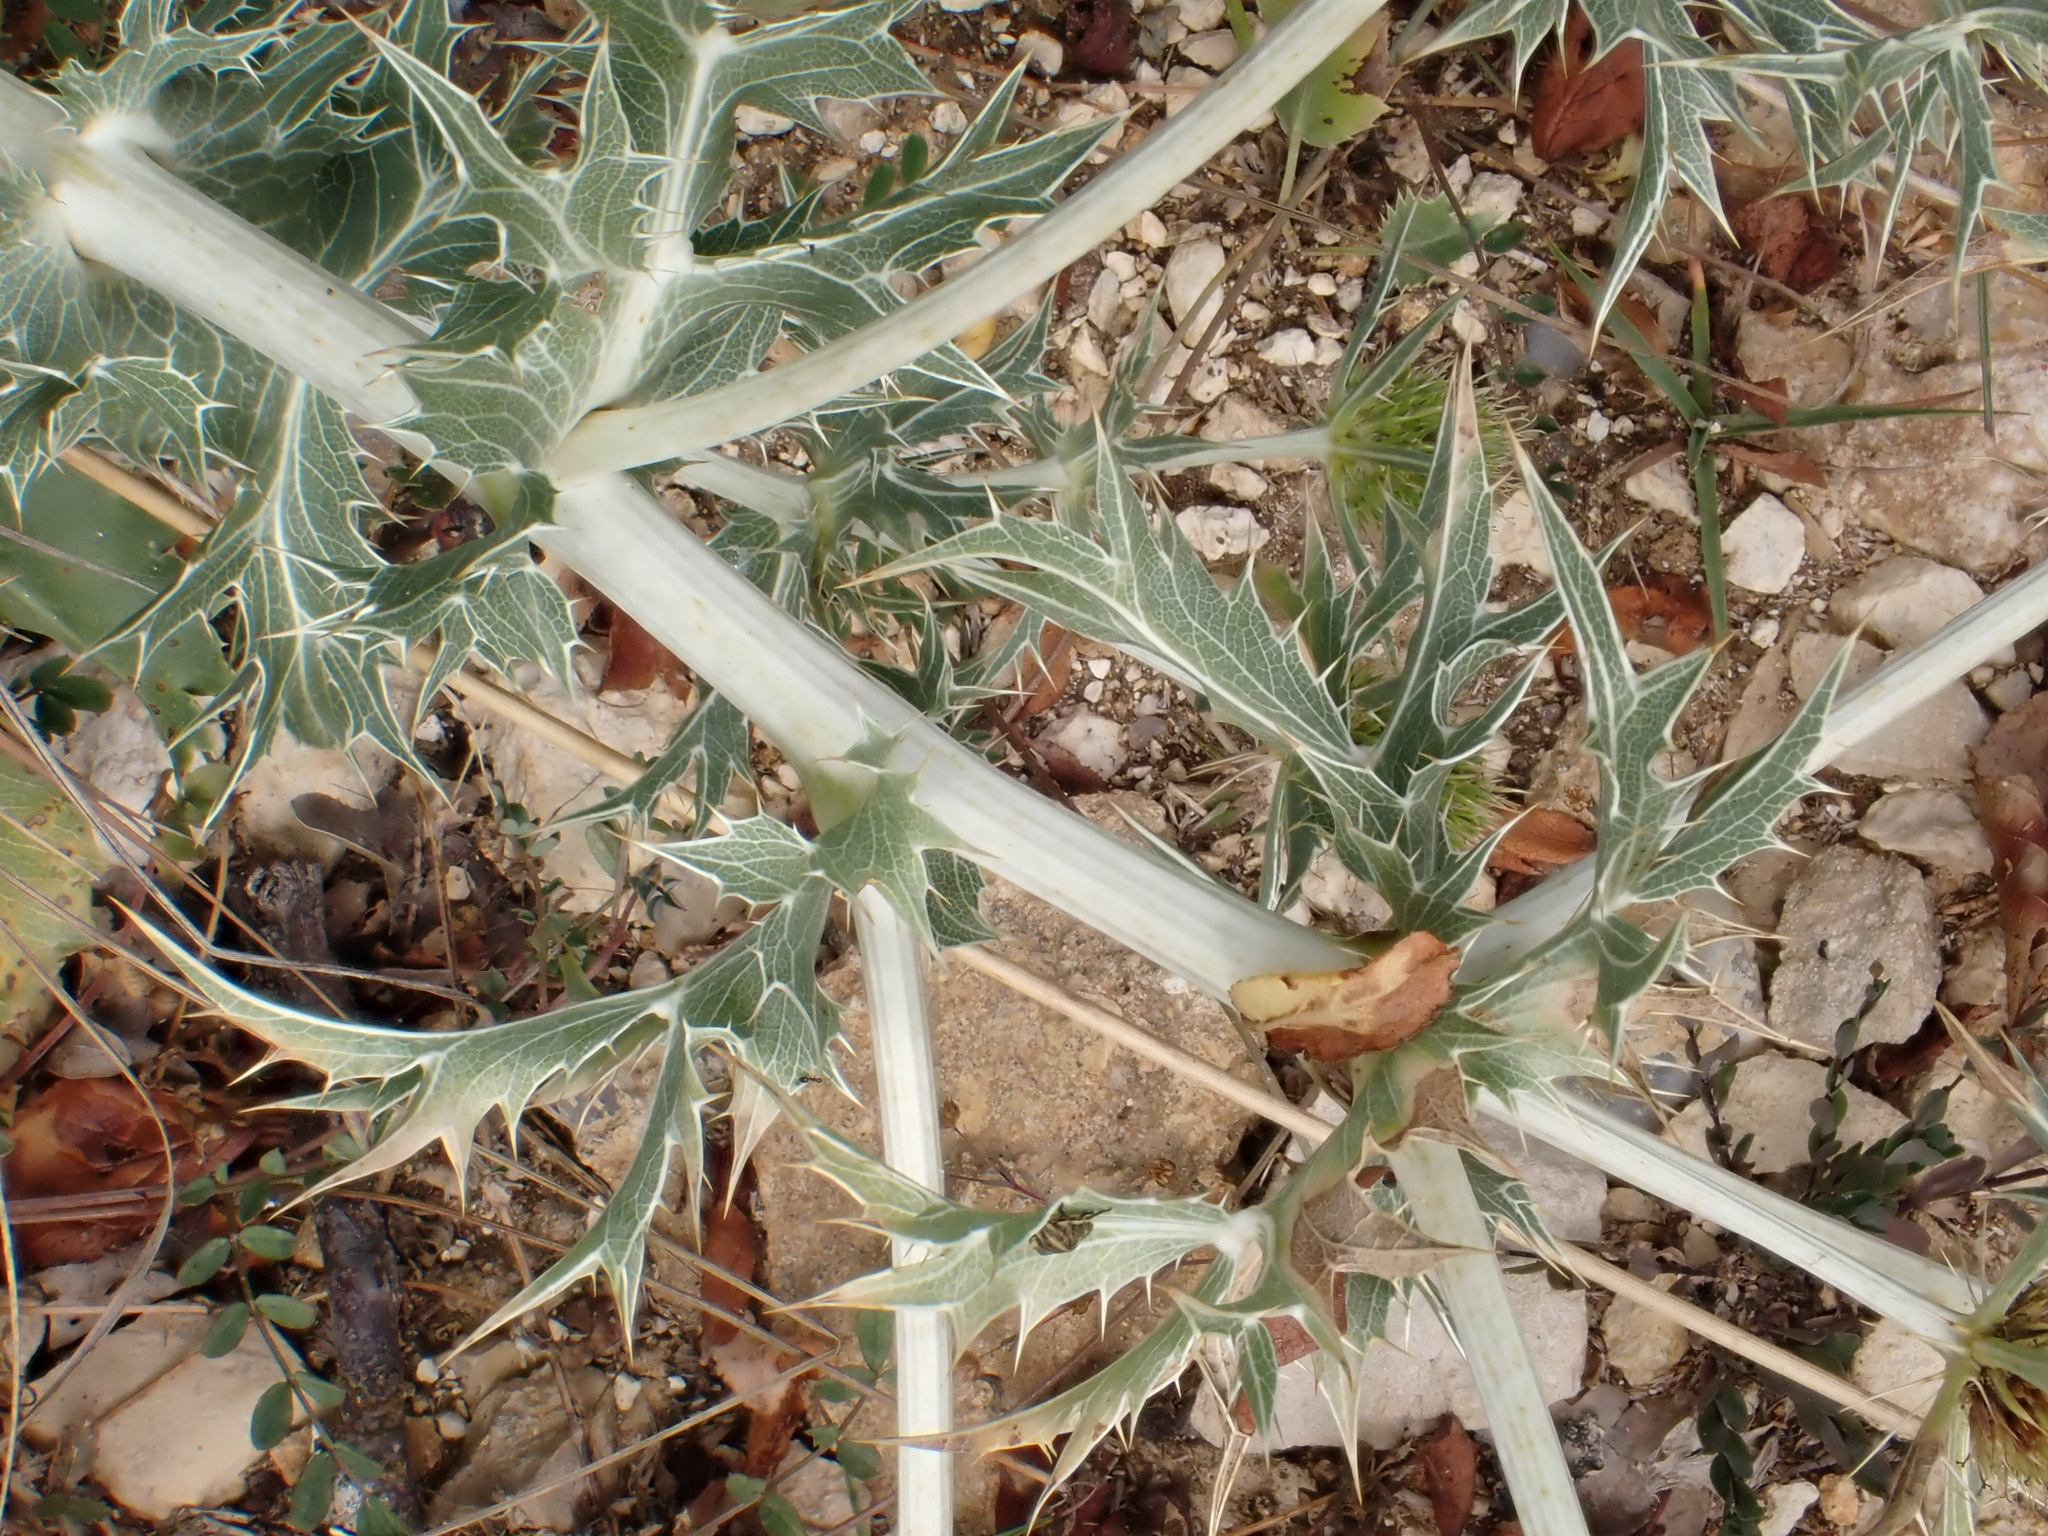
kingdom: Plantae
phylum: Tracheophyta
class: Magnoliopsida
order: Apiales
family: Apiaceae
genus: Eryngium
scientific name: Eryngium campestre
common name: Field eryngo
